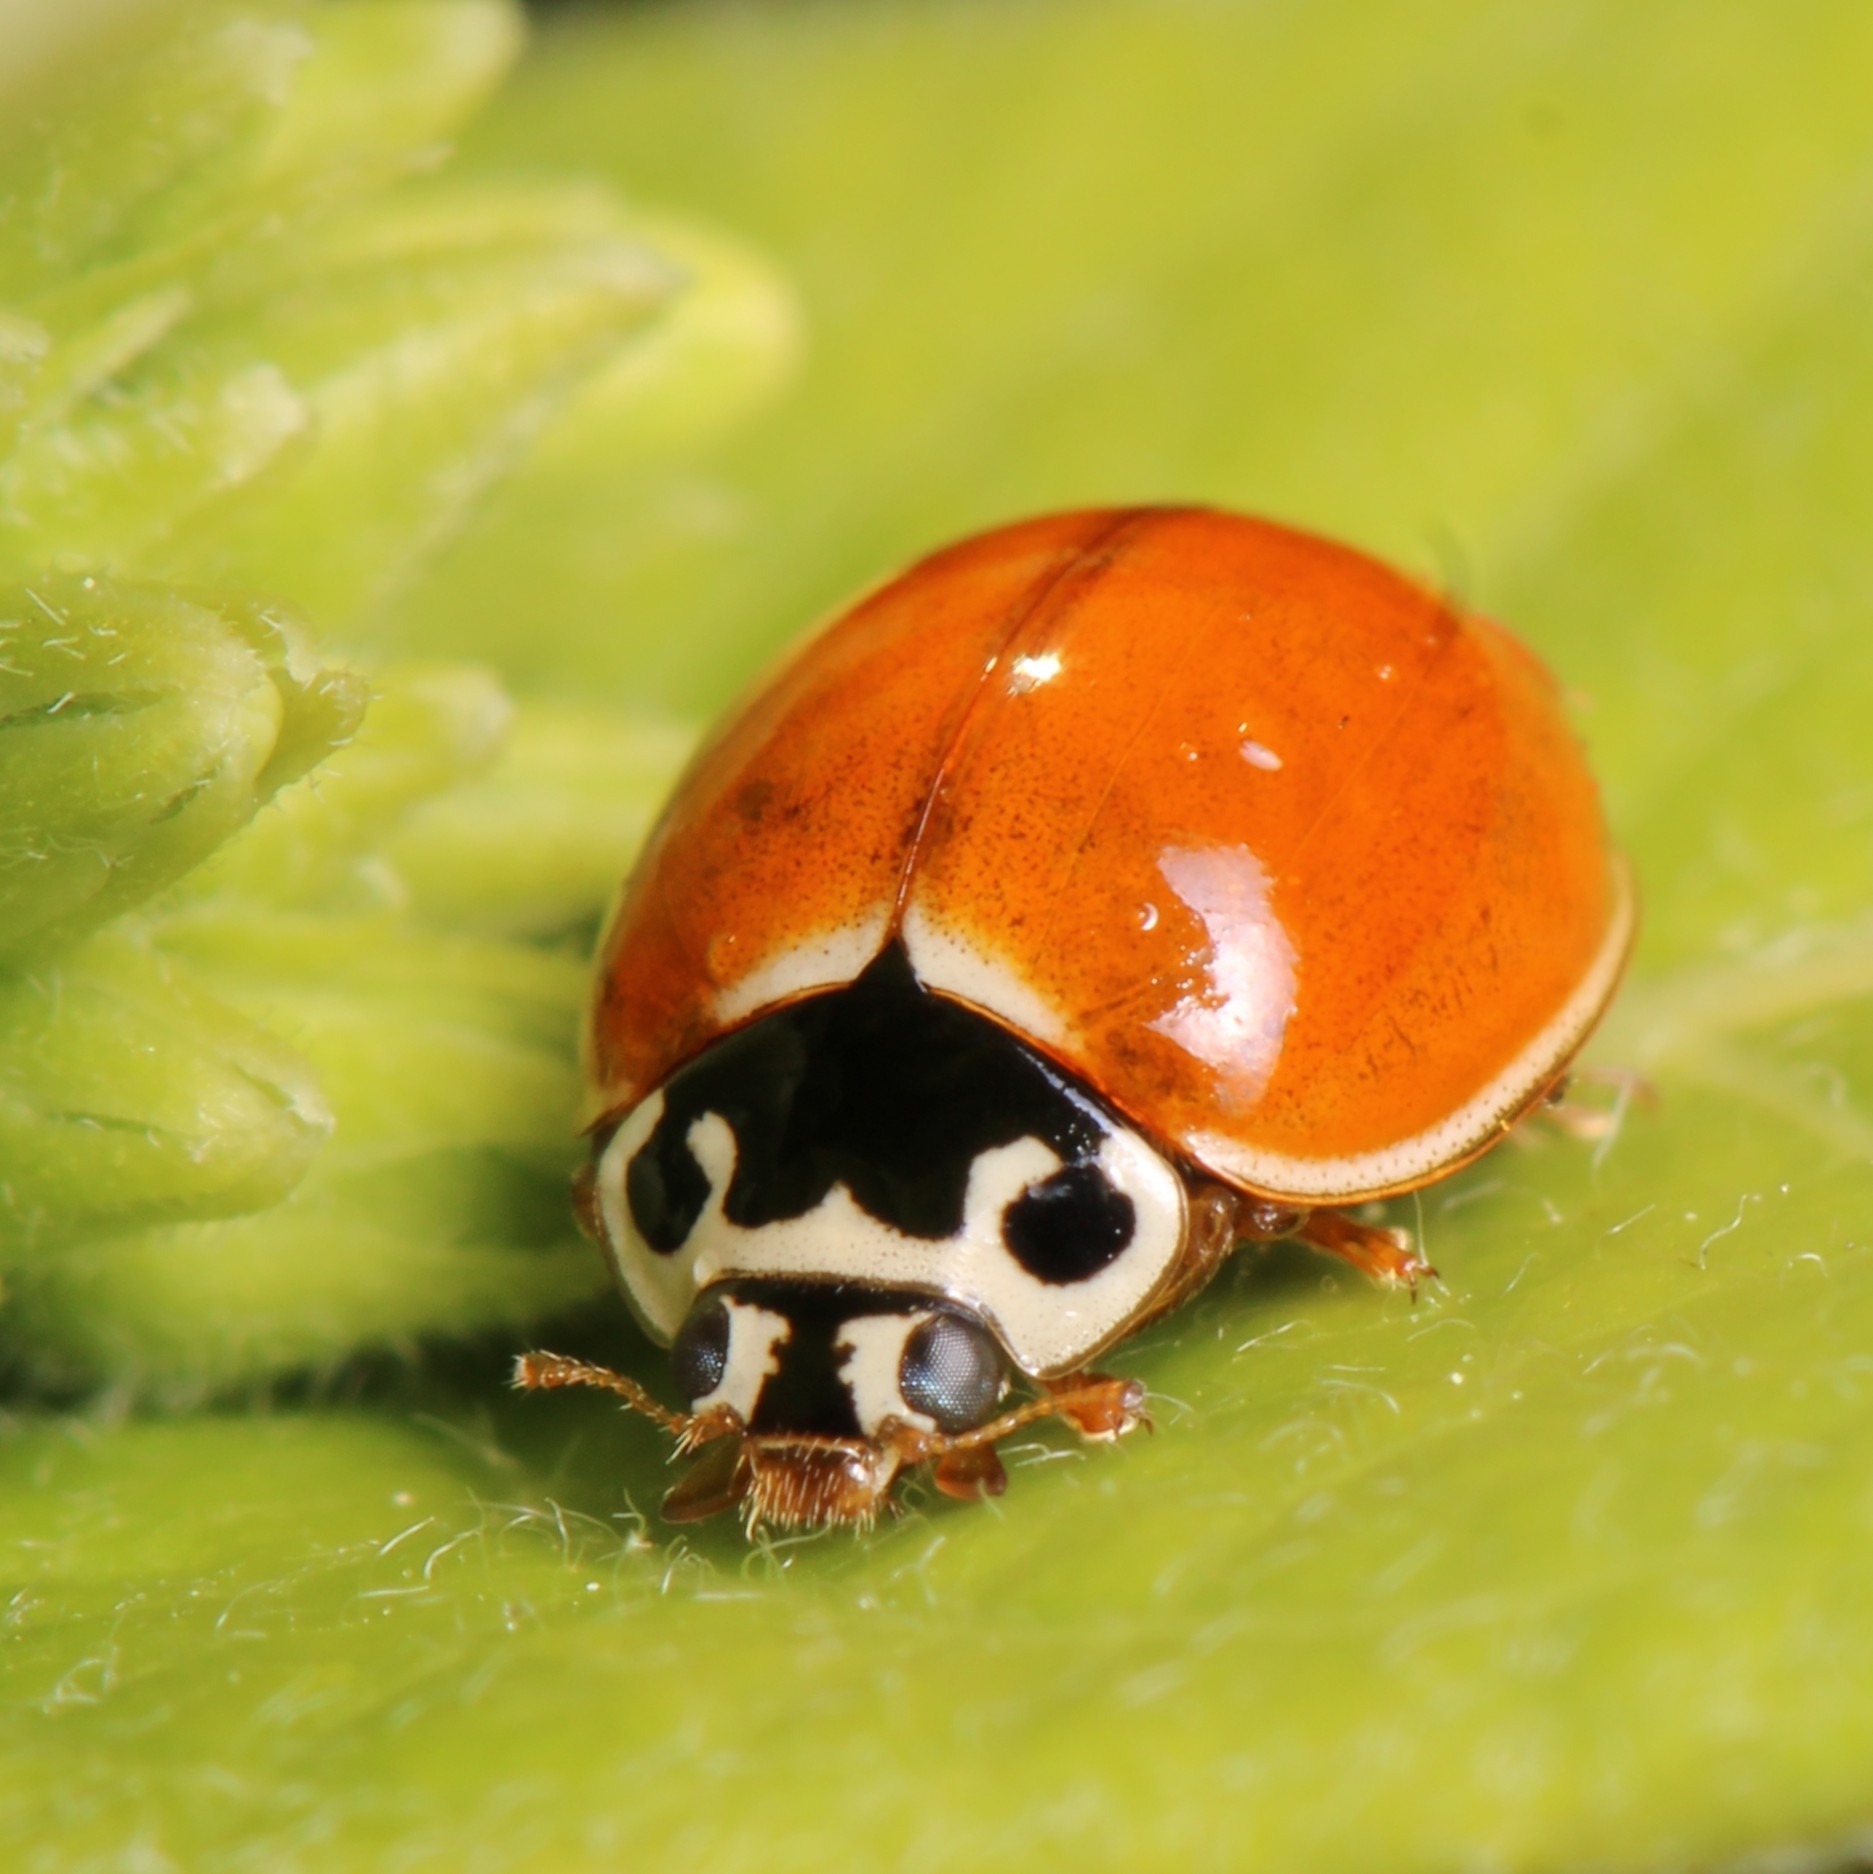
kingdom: Animalia
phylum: Arthropoda
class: Insecta
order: Coleoptera
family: Coccinellidae
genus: Cycloneda
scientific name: Cycloneda munda
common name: Polished lady beetle
